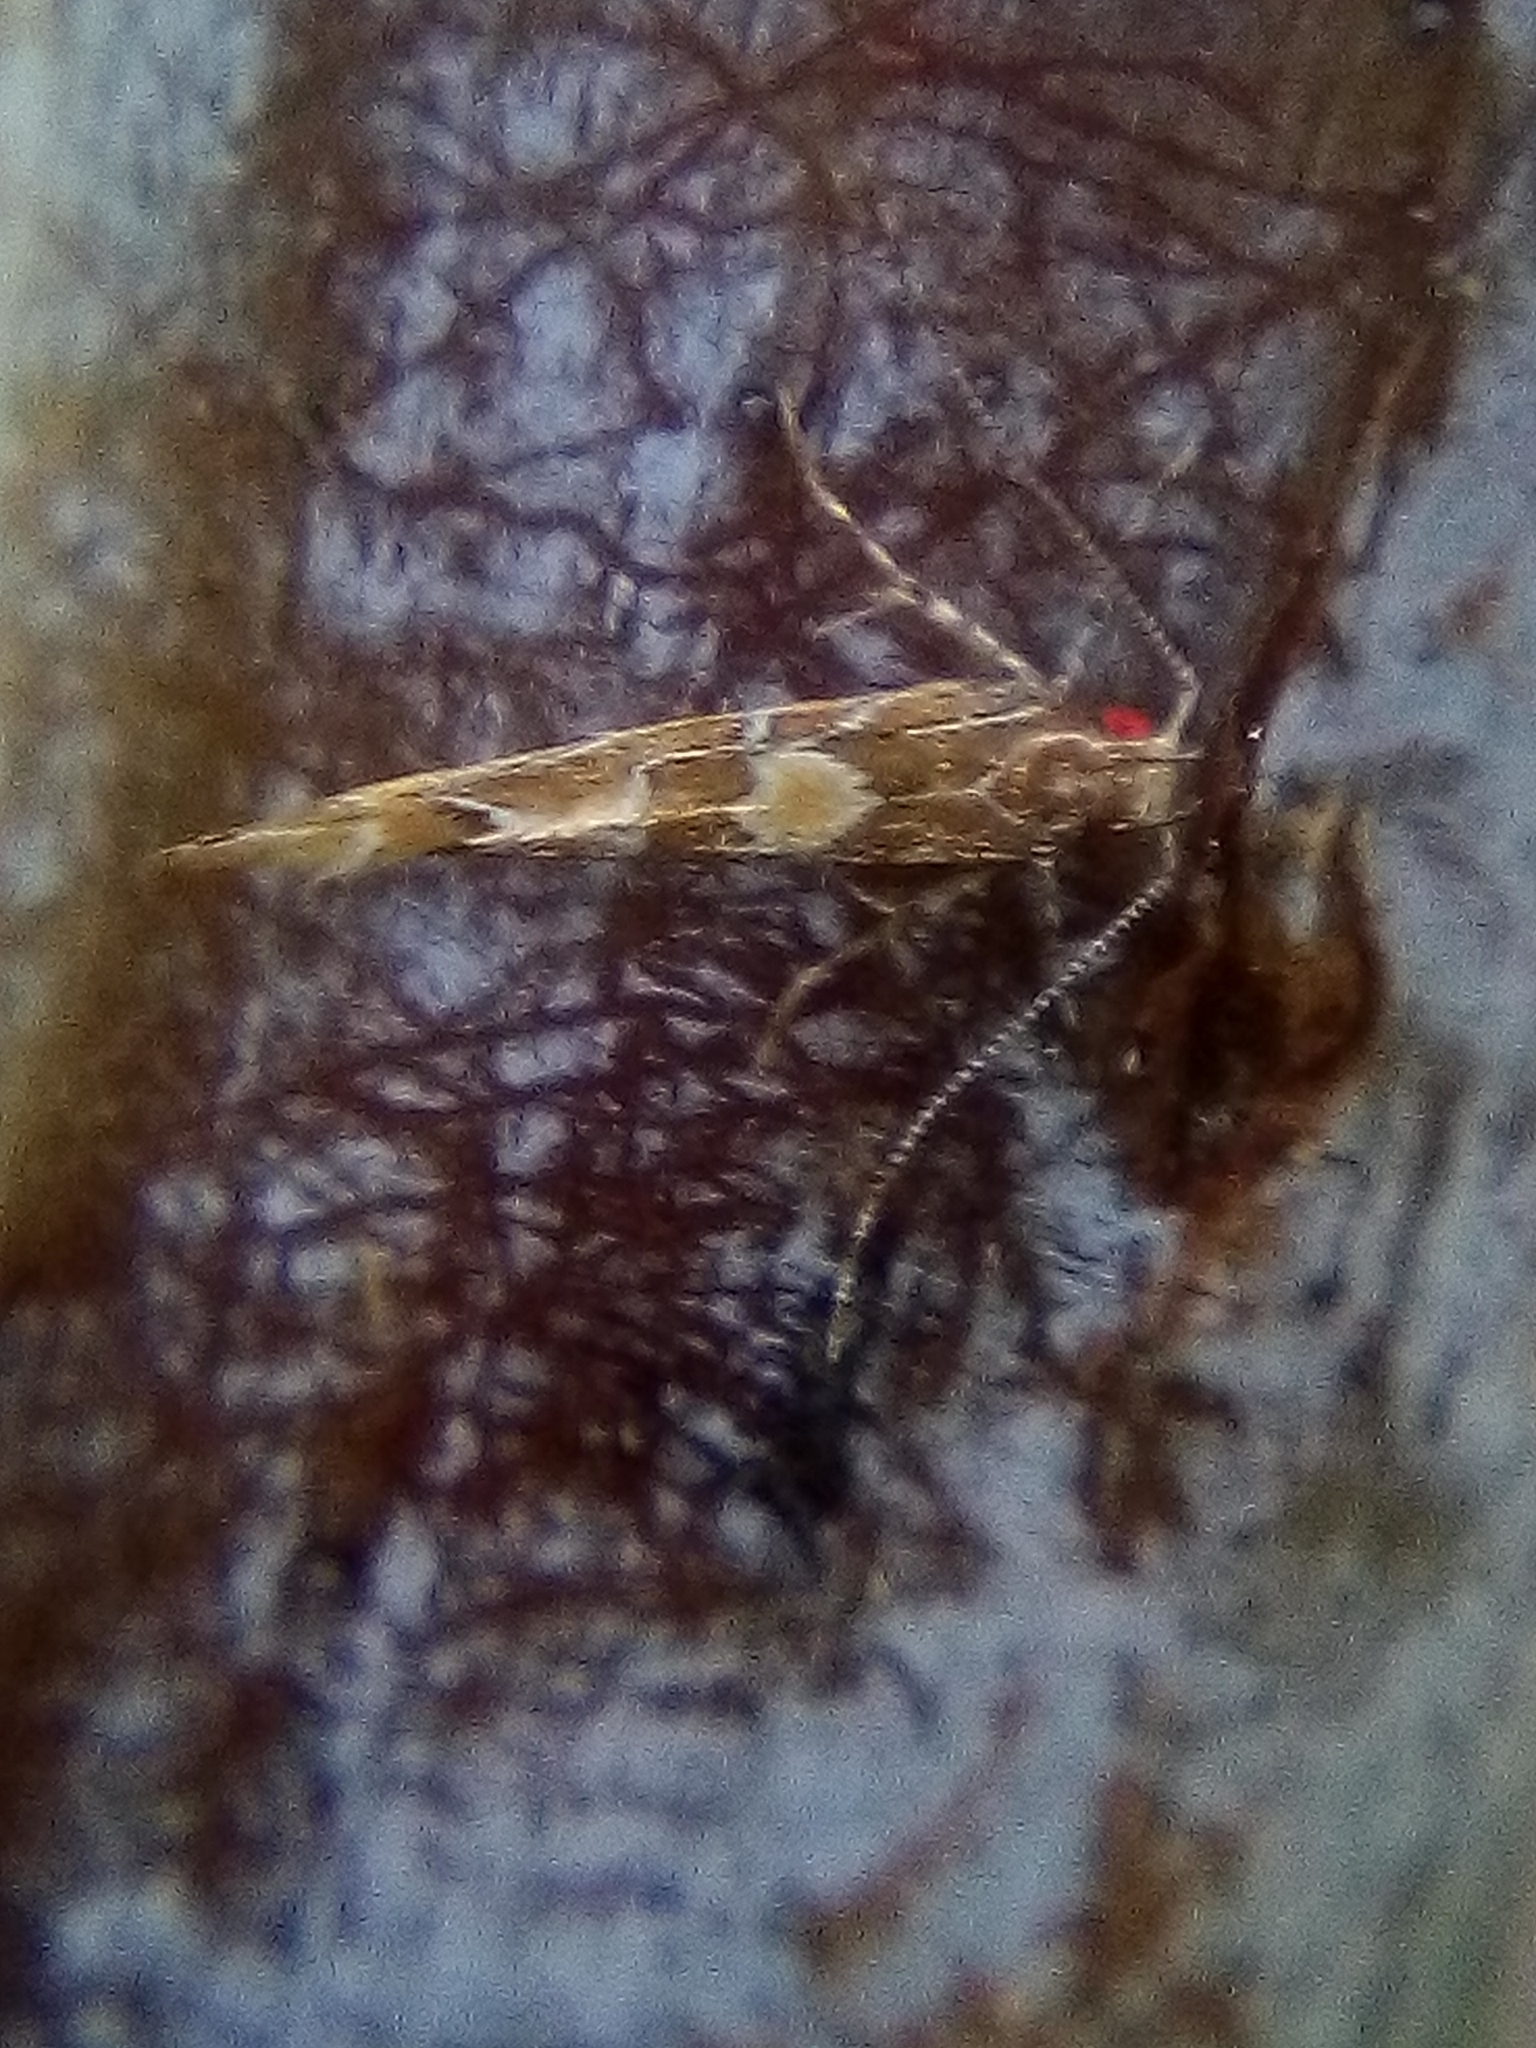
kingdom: Animalia
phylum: Arthropoda
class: Insecta
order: Lepidoptera
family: Cosmopterigidae
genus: Pyroderces
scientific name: Pyroderces apparitella
